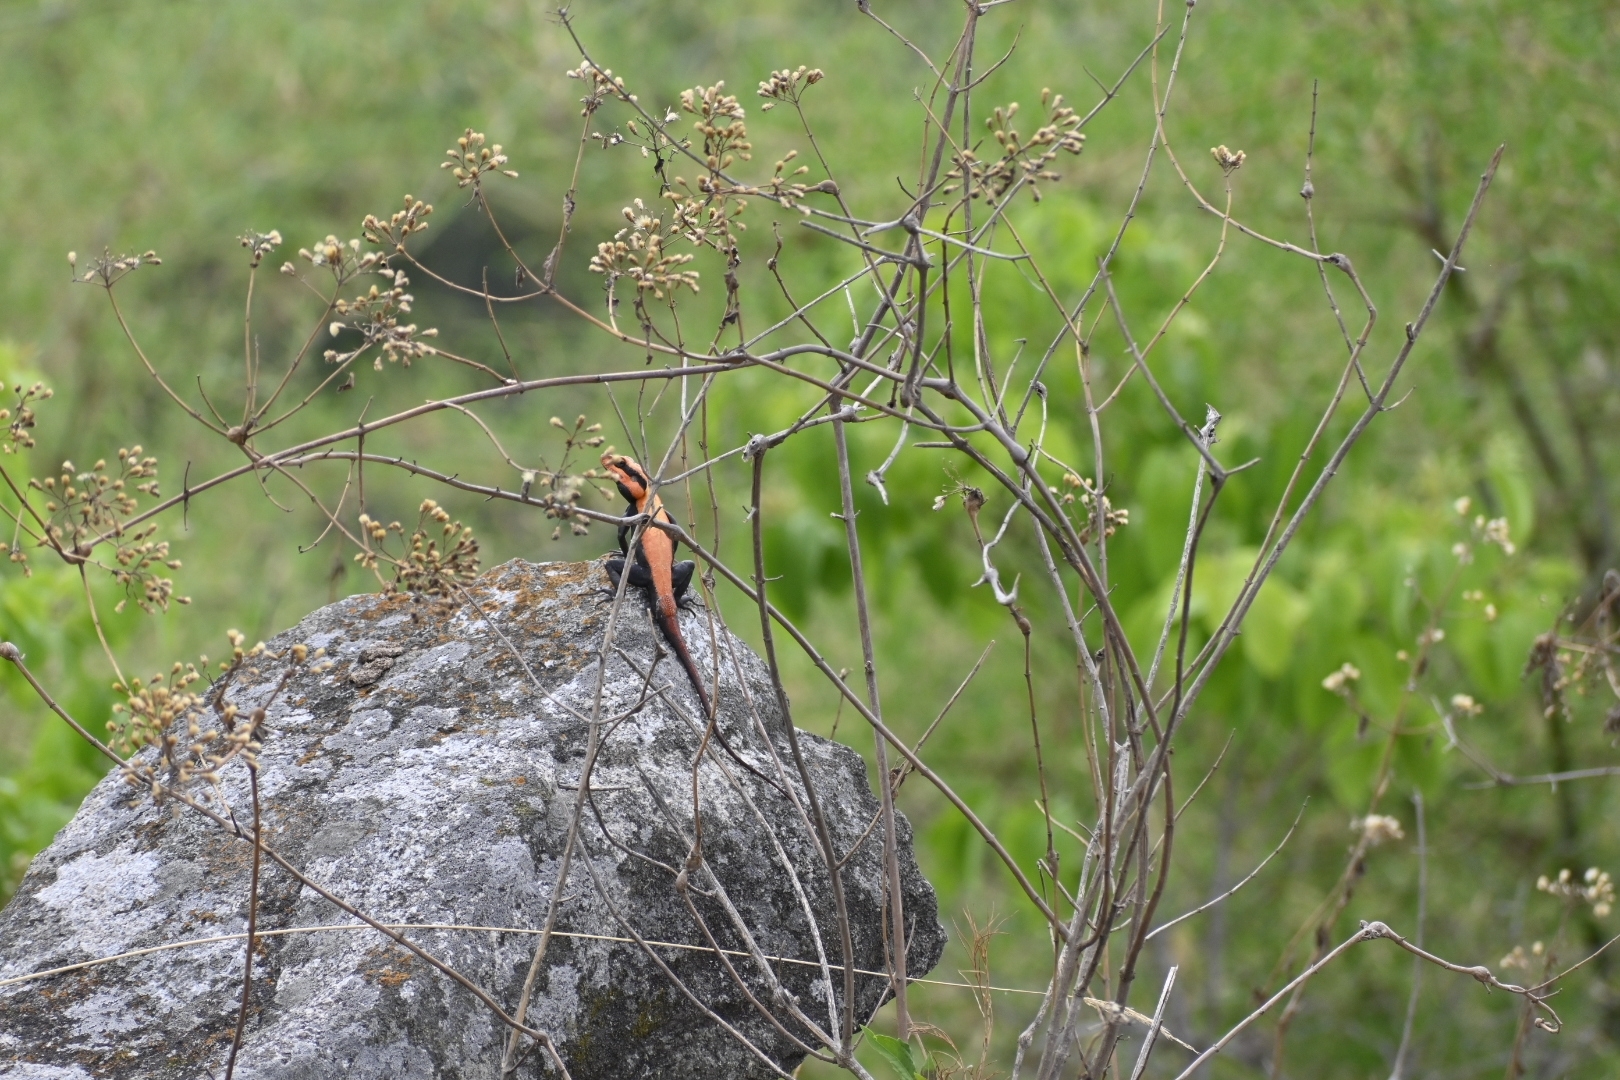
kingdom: Animalia
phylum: Chordata
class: Squamata
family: Agamidae
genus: Psammophilus
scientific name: Psammophilus dorsalis
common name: South indian rock agama
